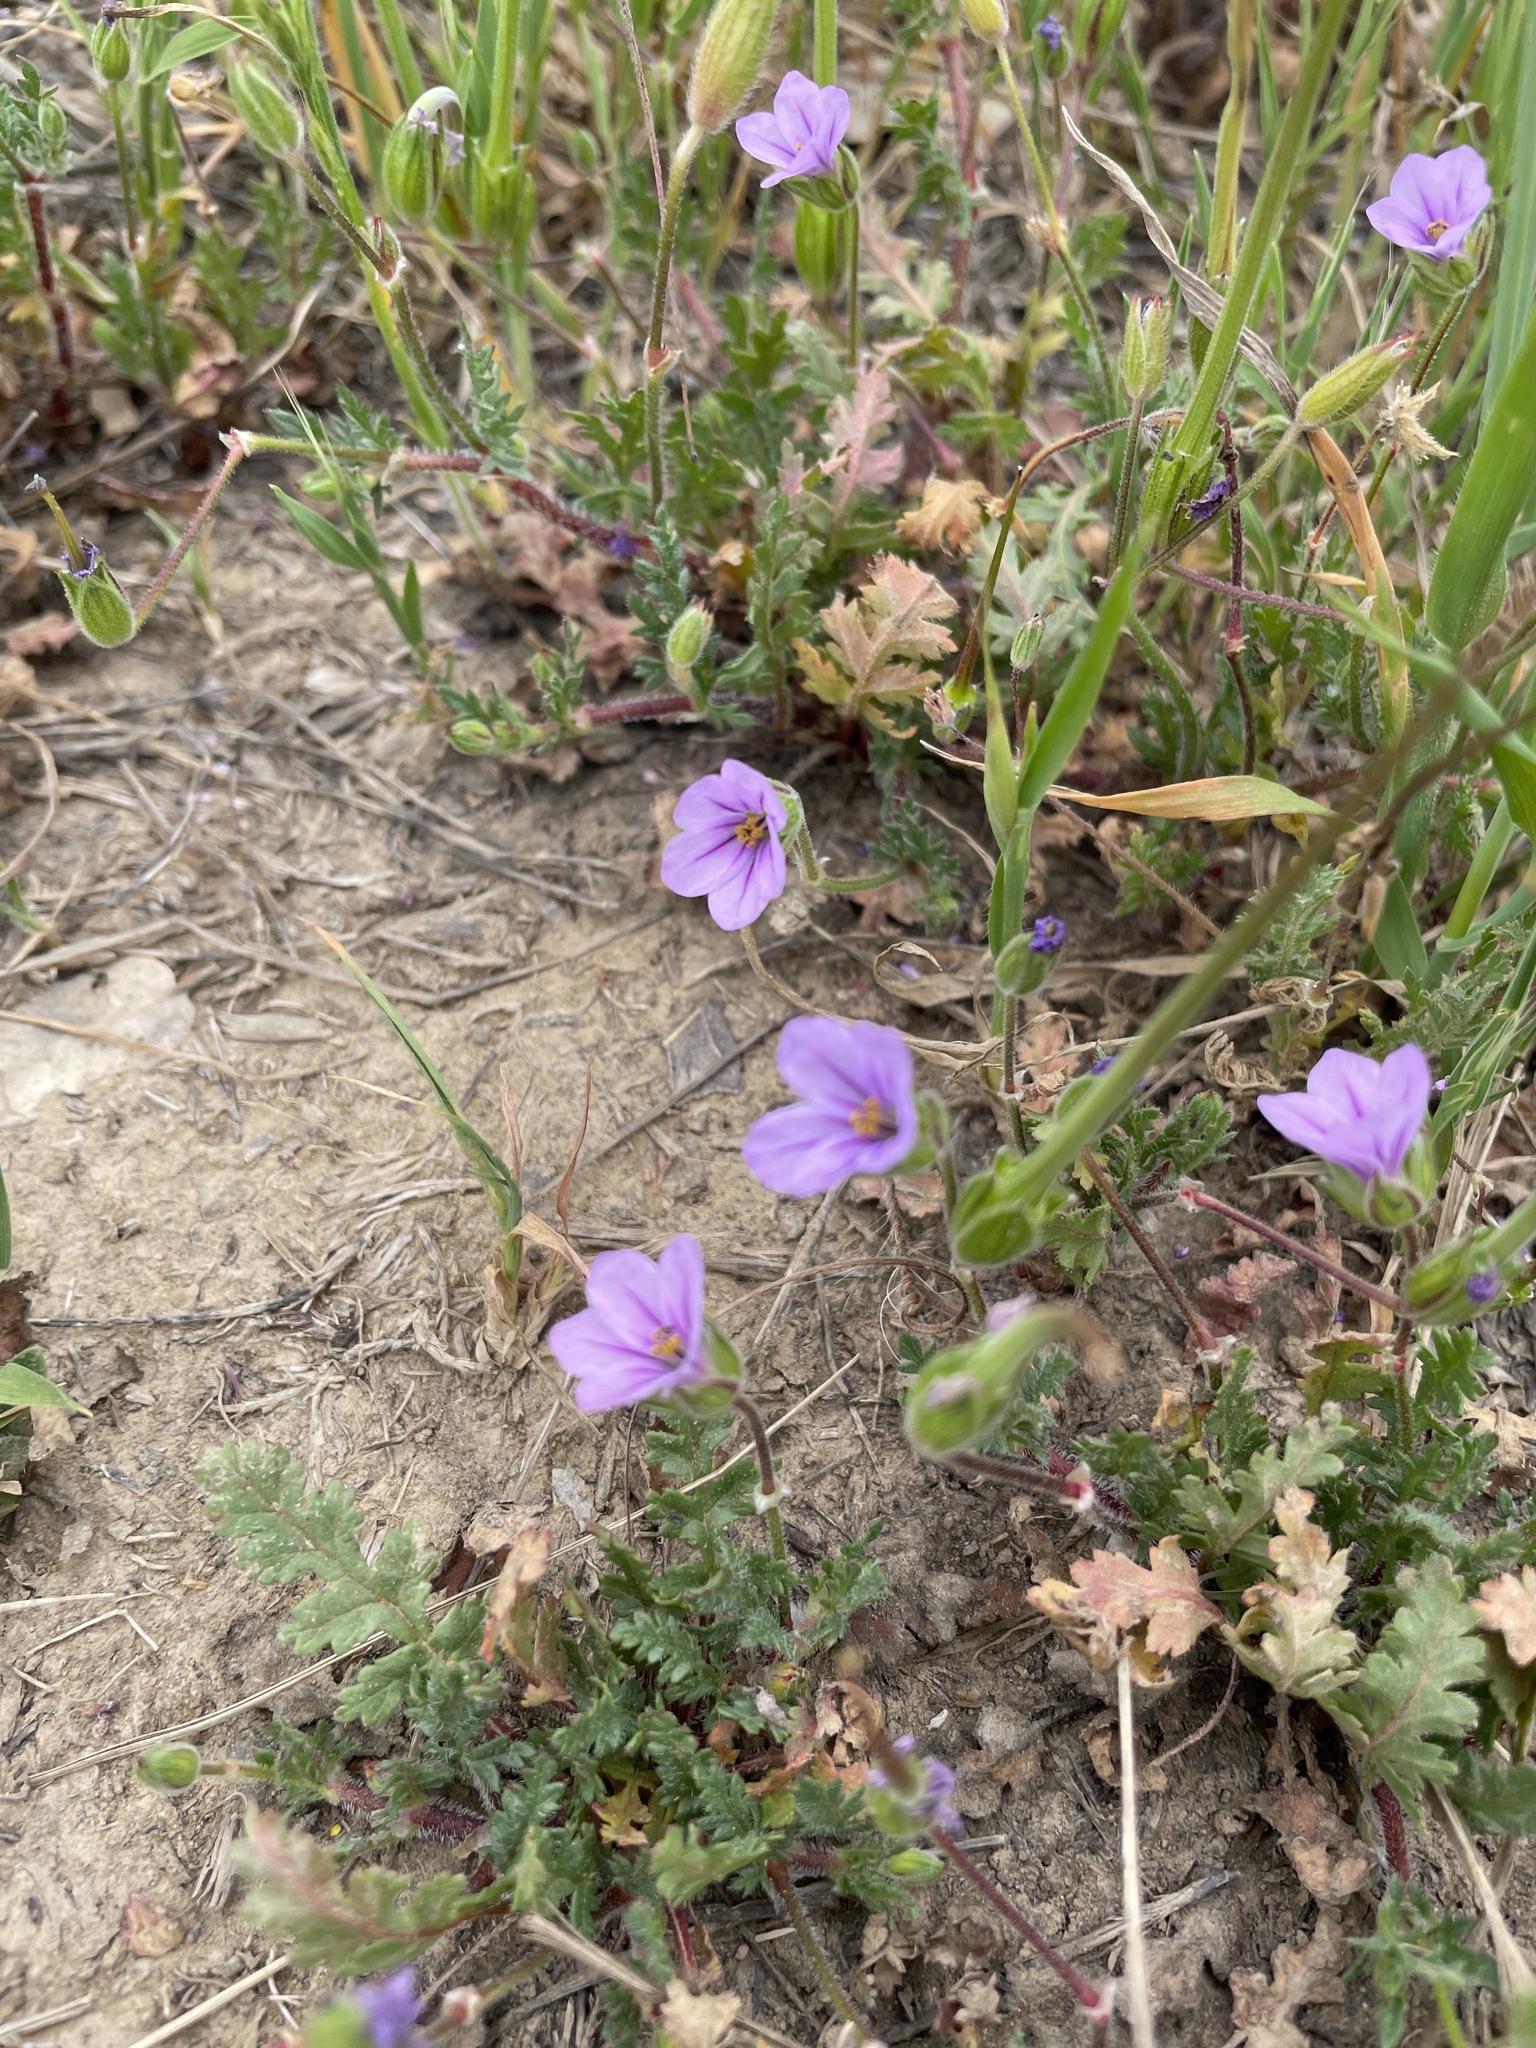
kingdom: Plantae
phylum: Tracheophyta
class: Magnoliopsida
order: Geraniales
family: Geraniaceae
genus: Erodium
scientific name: Erodium botrys
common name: Mediterranean stork's-bill
